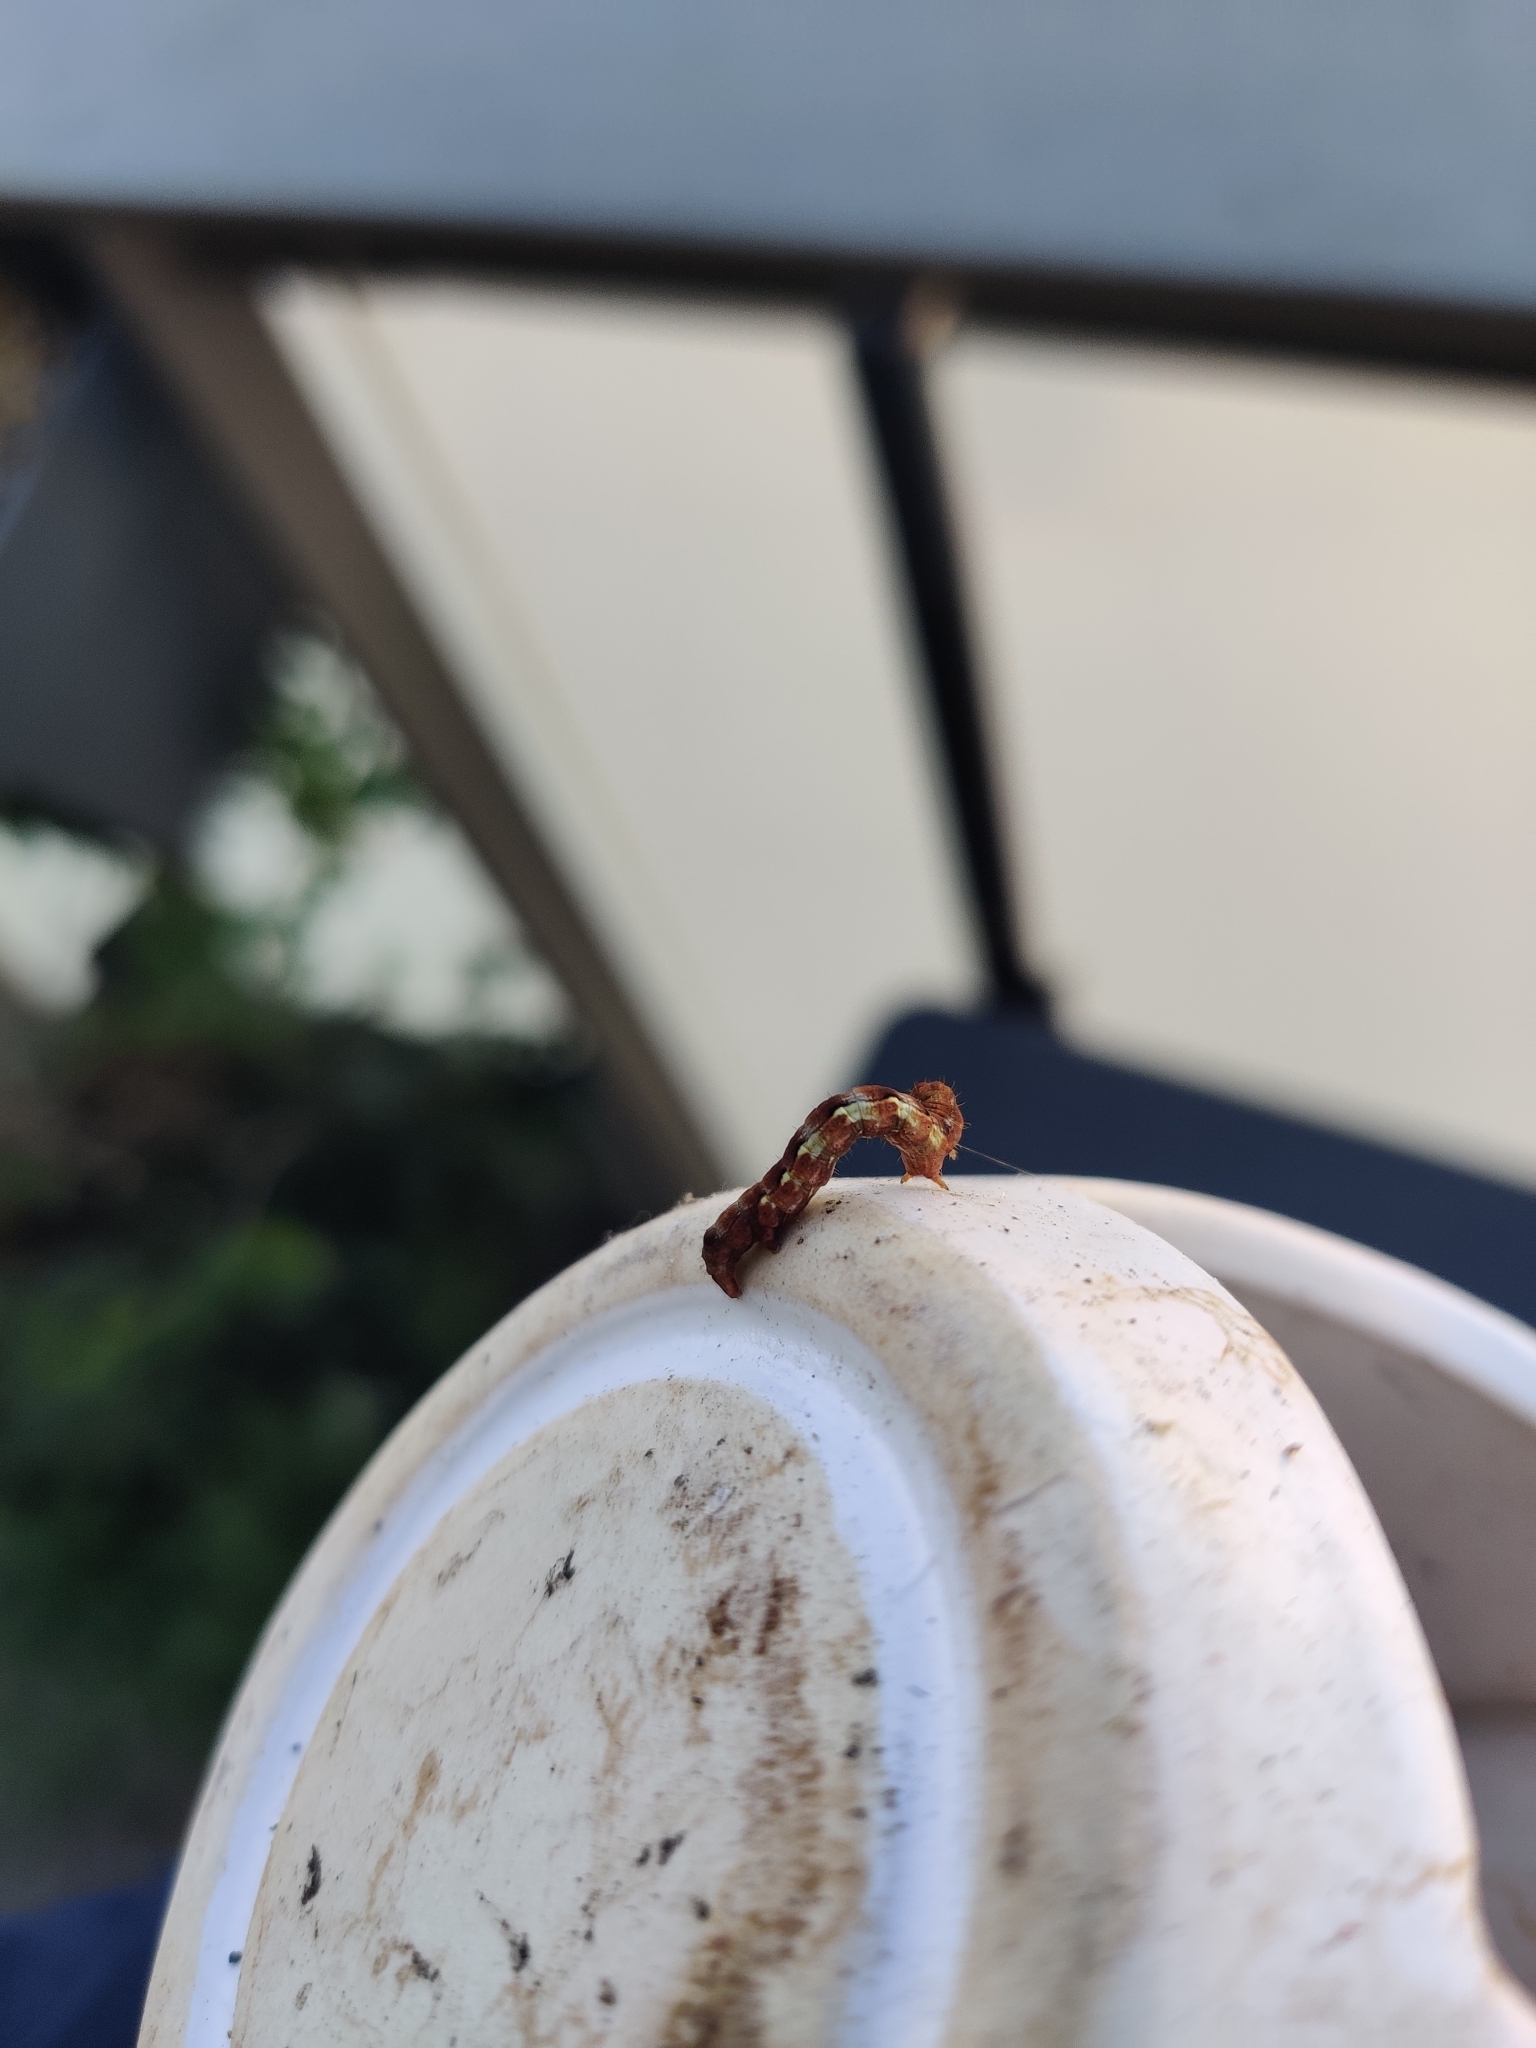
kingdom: Animalia
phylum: Arthropoda
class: Insecta
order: Lepidoptera
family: Geometridae
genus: Erannis
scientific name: Erannis defoliaria
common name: Mottled umber
